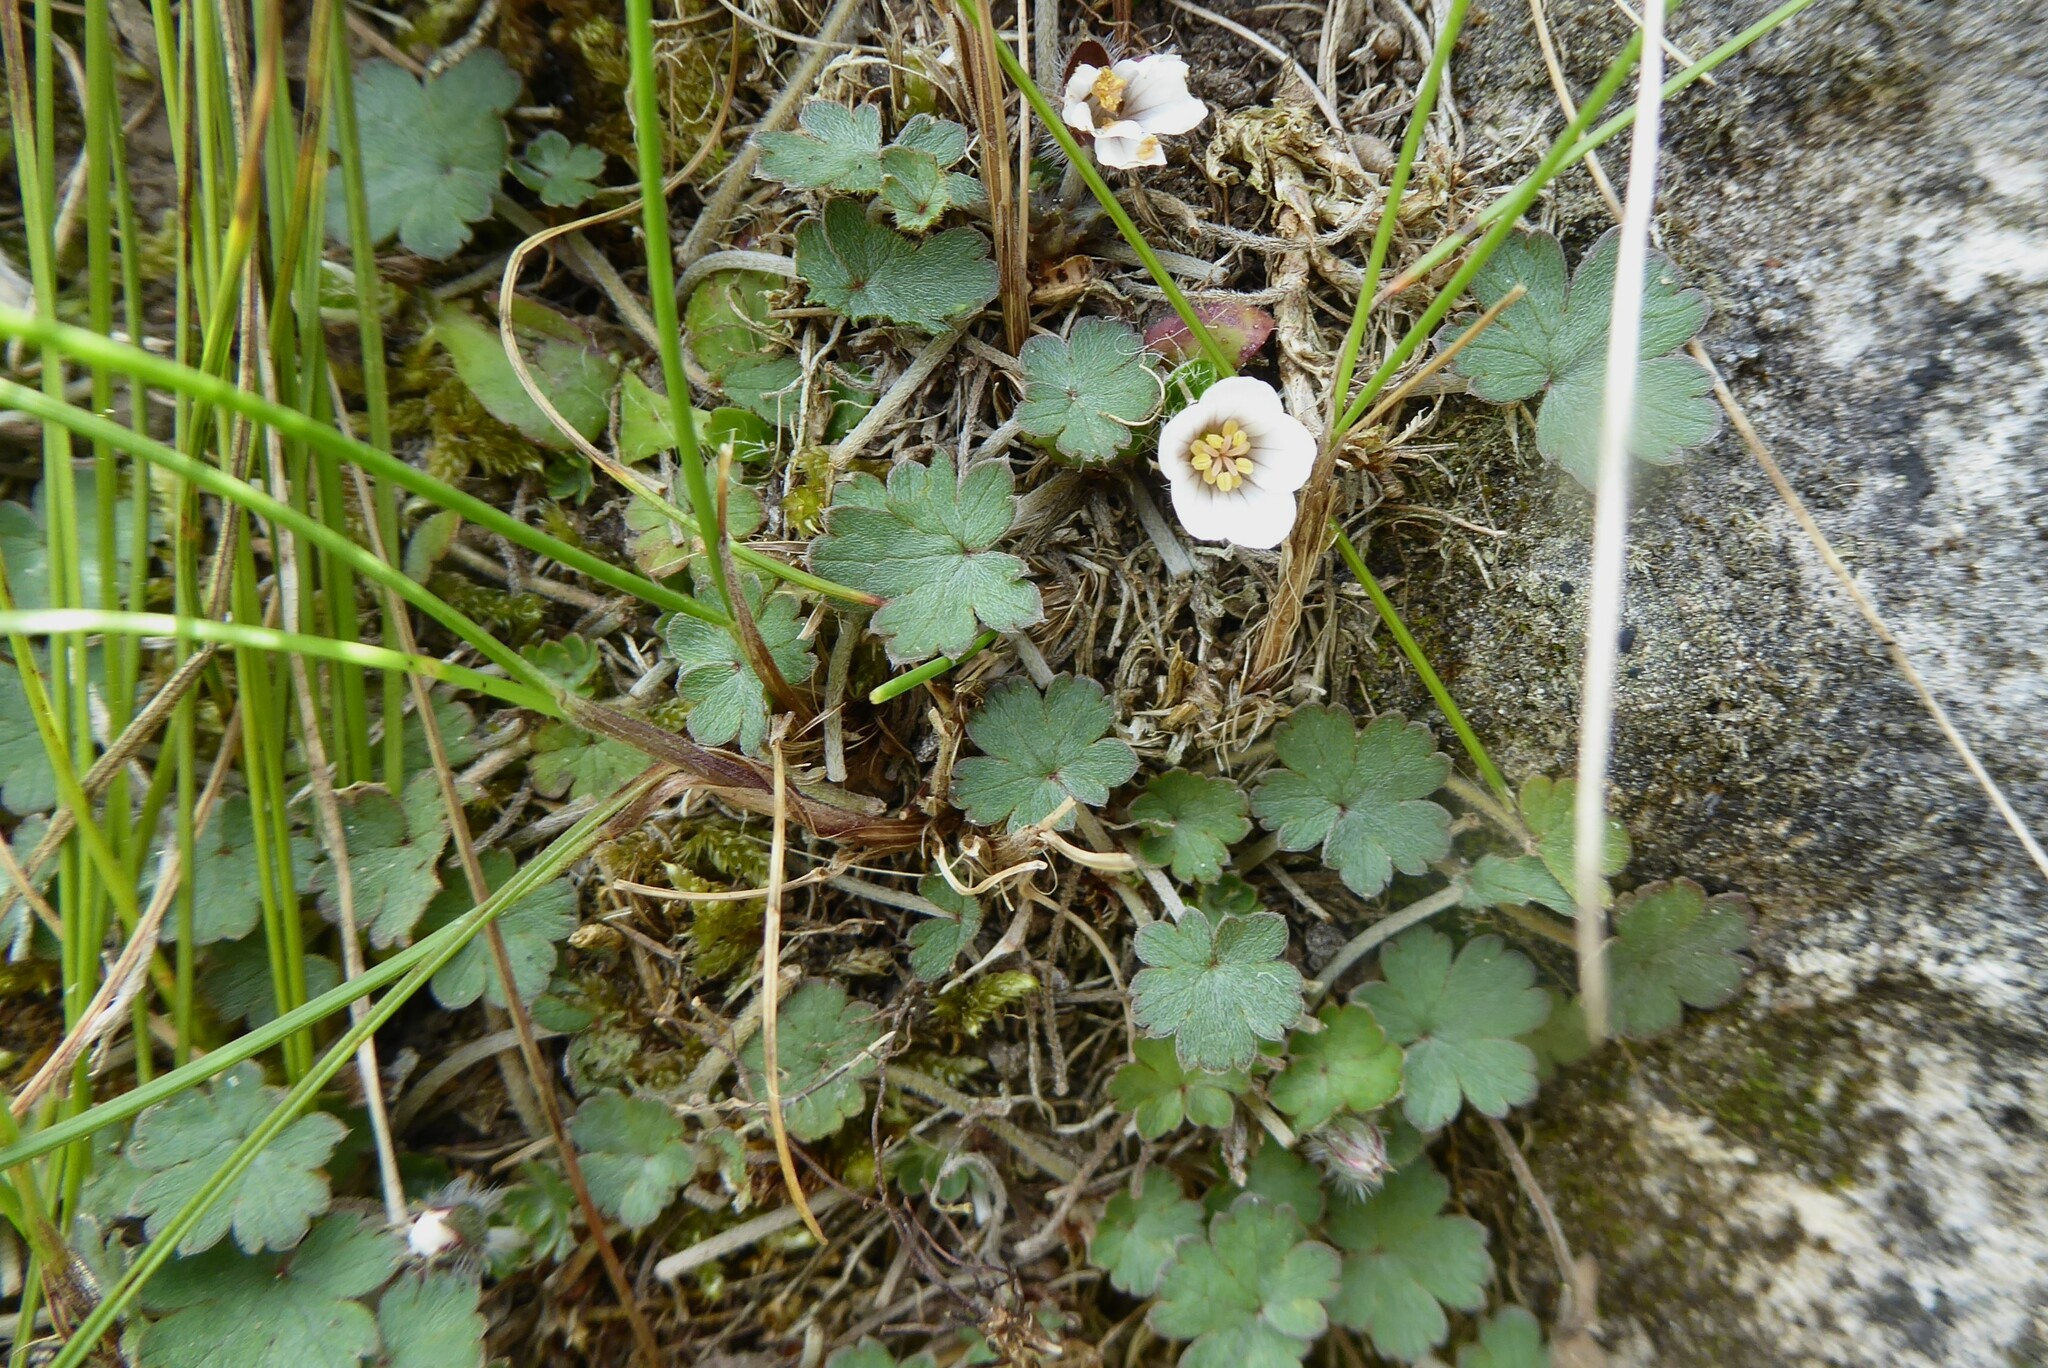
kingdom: Plantae
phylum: Tracheophyta
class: Magnoliopsida
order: Geraniales
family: Geraniaceae
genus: Geranium
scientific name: Geranium socolateum
